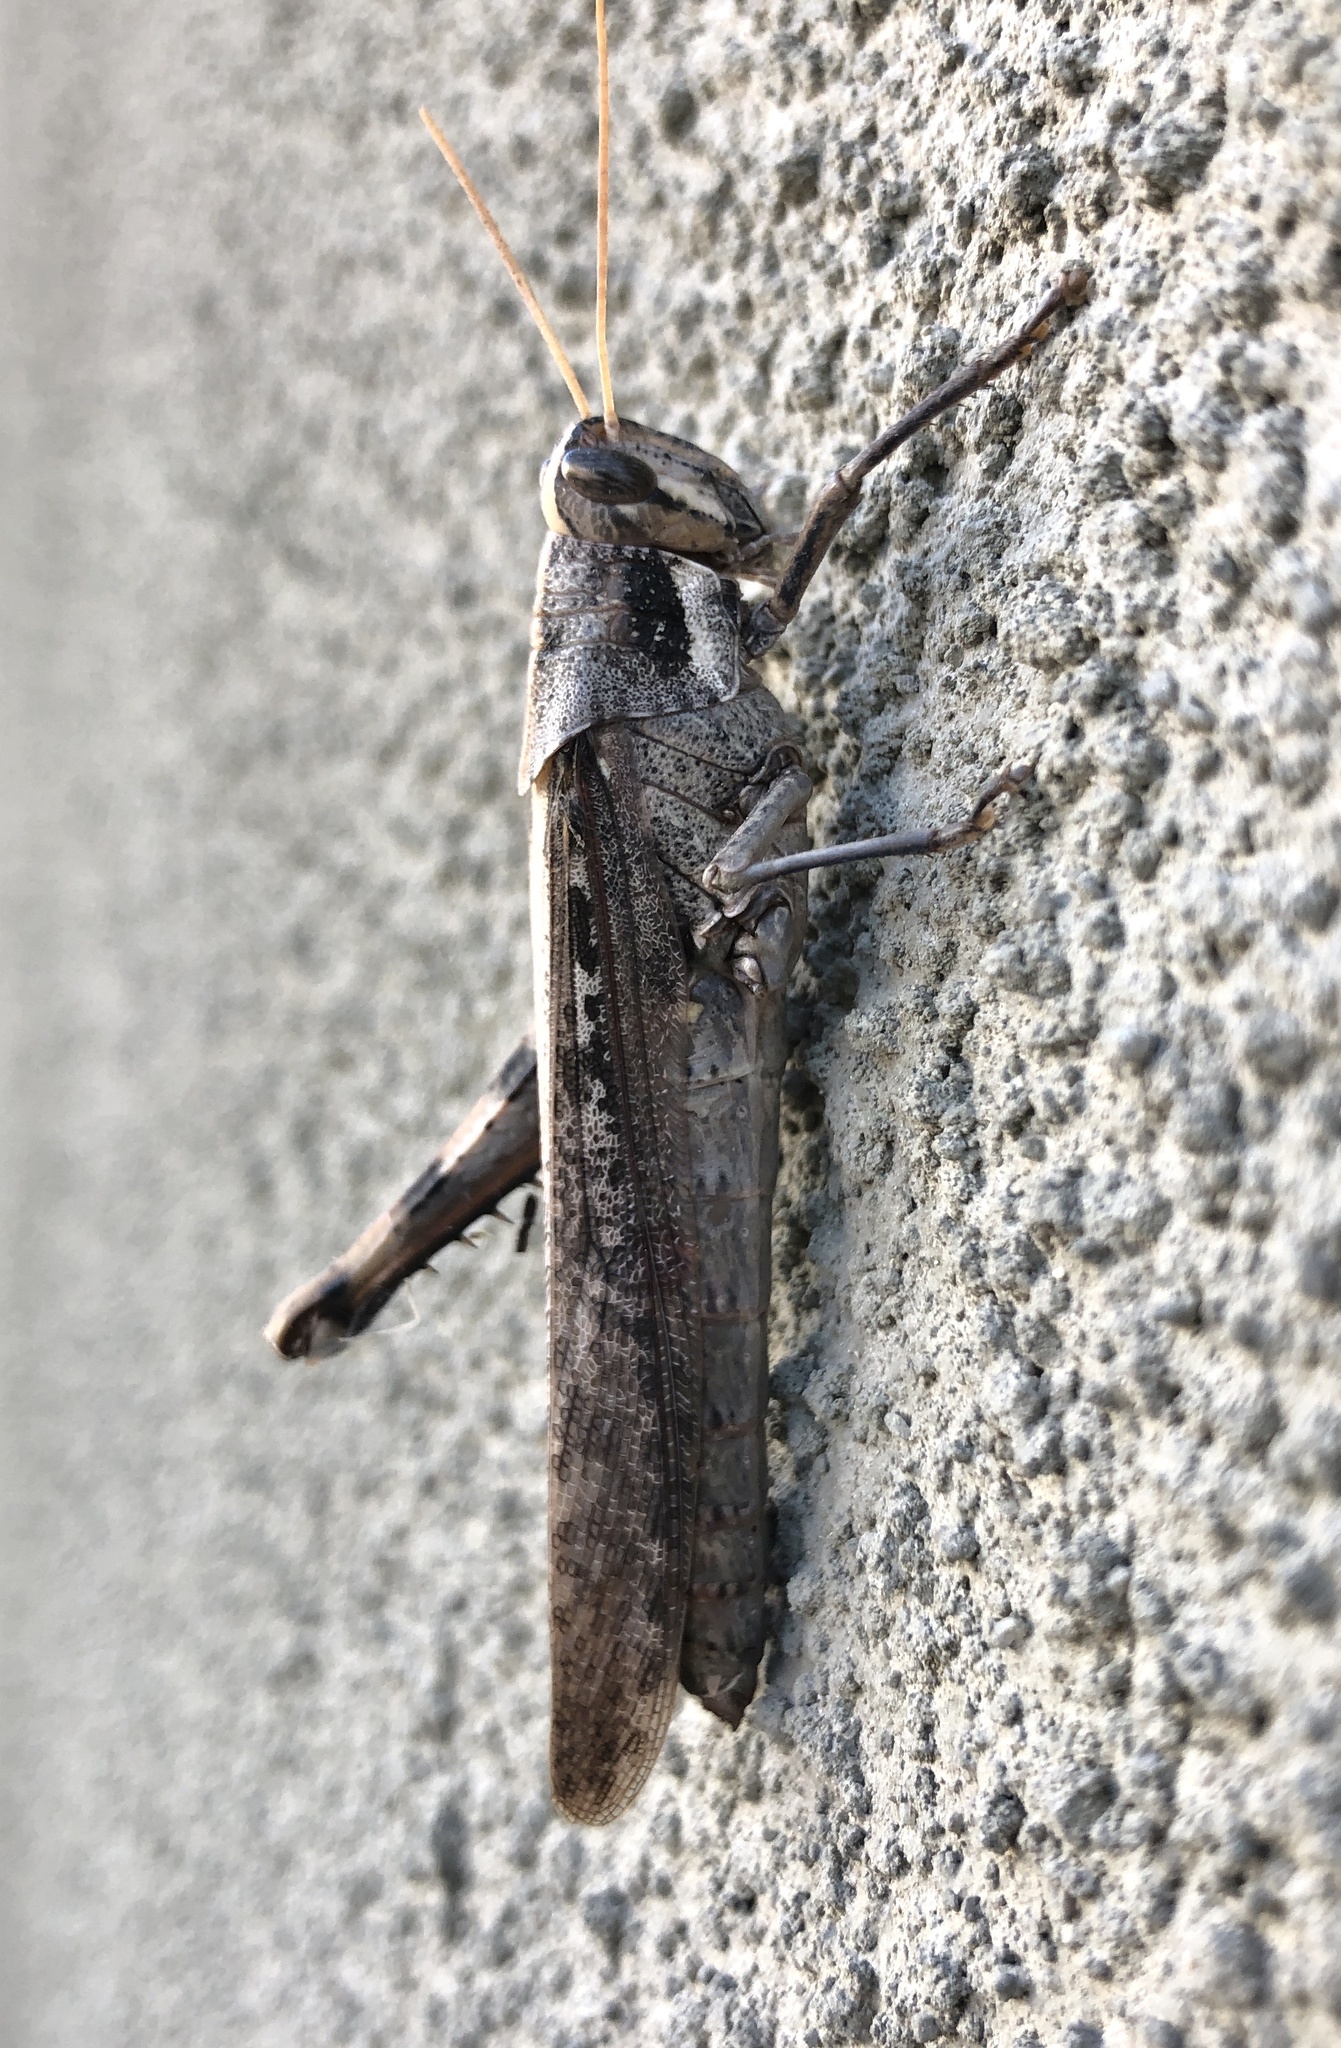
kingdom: Animalia
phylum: Arthropoda
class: Insecta
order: Orthoptera
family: Acrididae
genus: Schistocerca
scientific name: Schistocerca nitens
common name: Vagrant grasshopper
